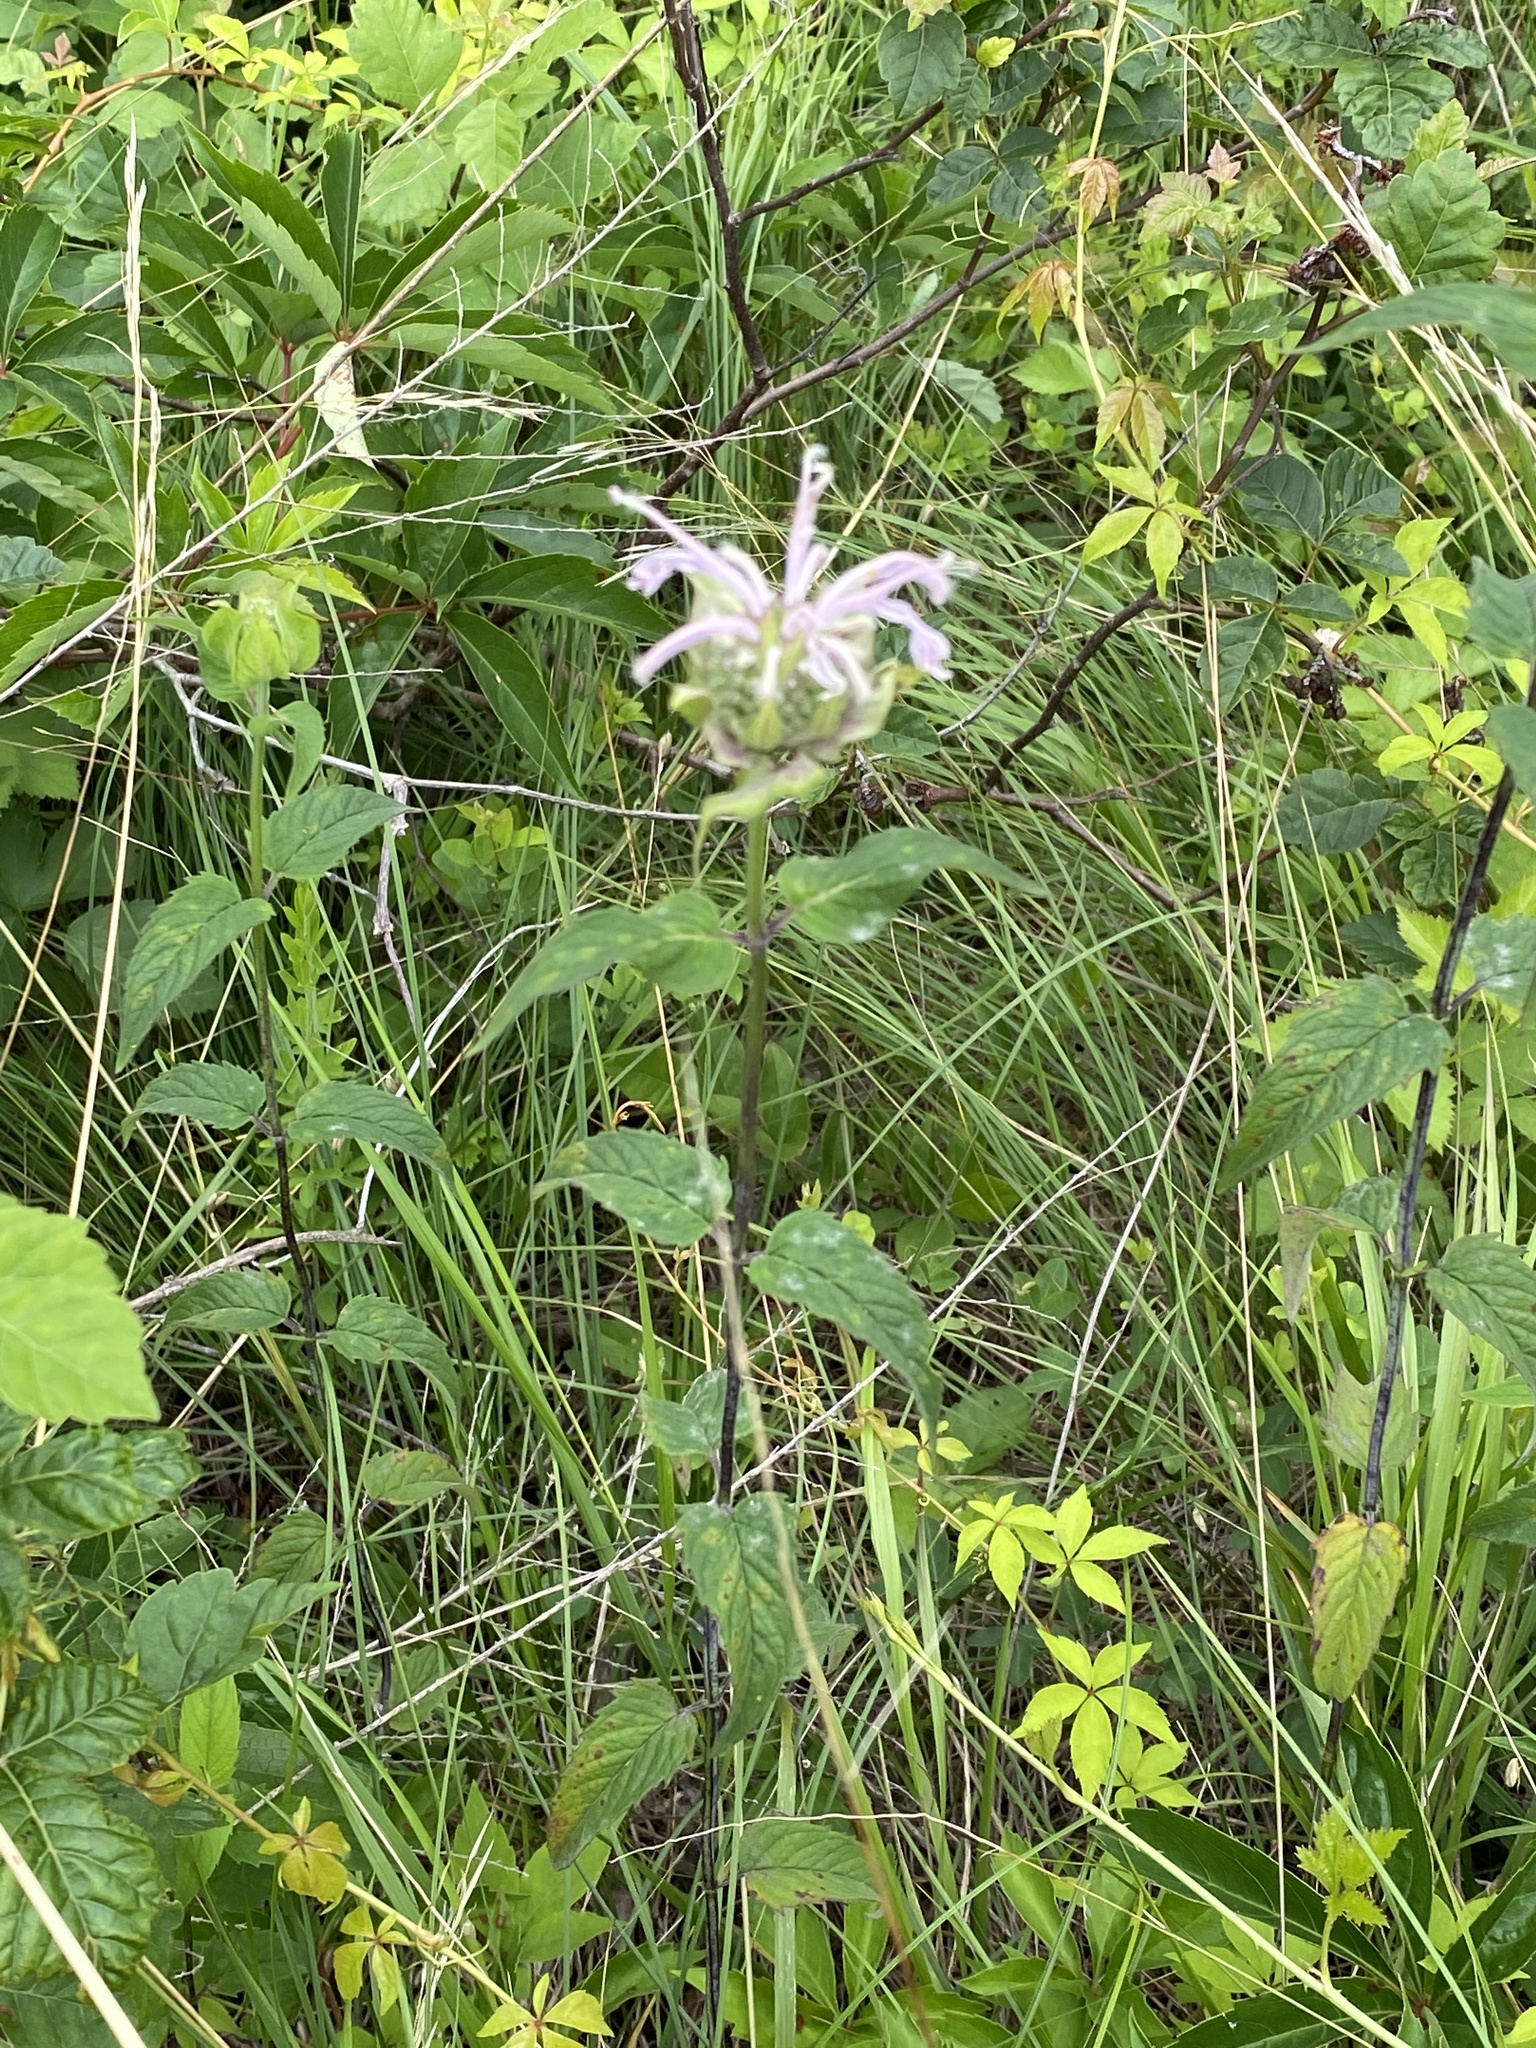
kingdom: Plantae
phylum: Tracheophyta
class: Magnoliopsida
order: Lamiales
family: Lamiaceae
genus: Monarda
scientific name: Monarda fistulosa
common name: Purple beebalm
